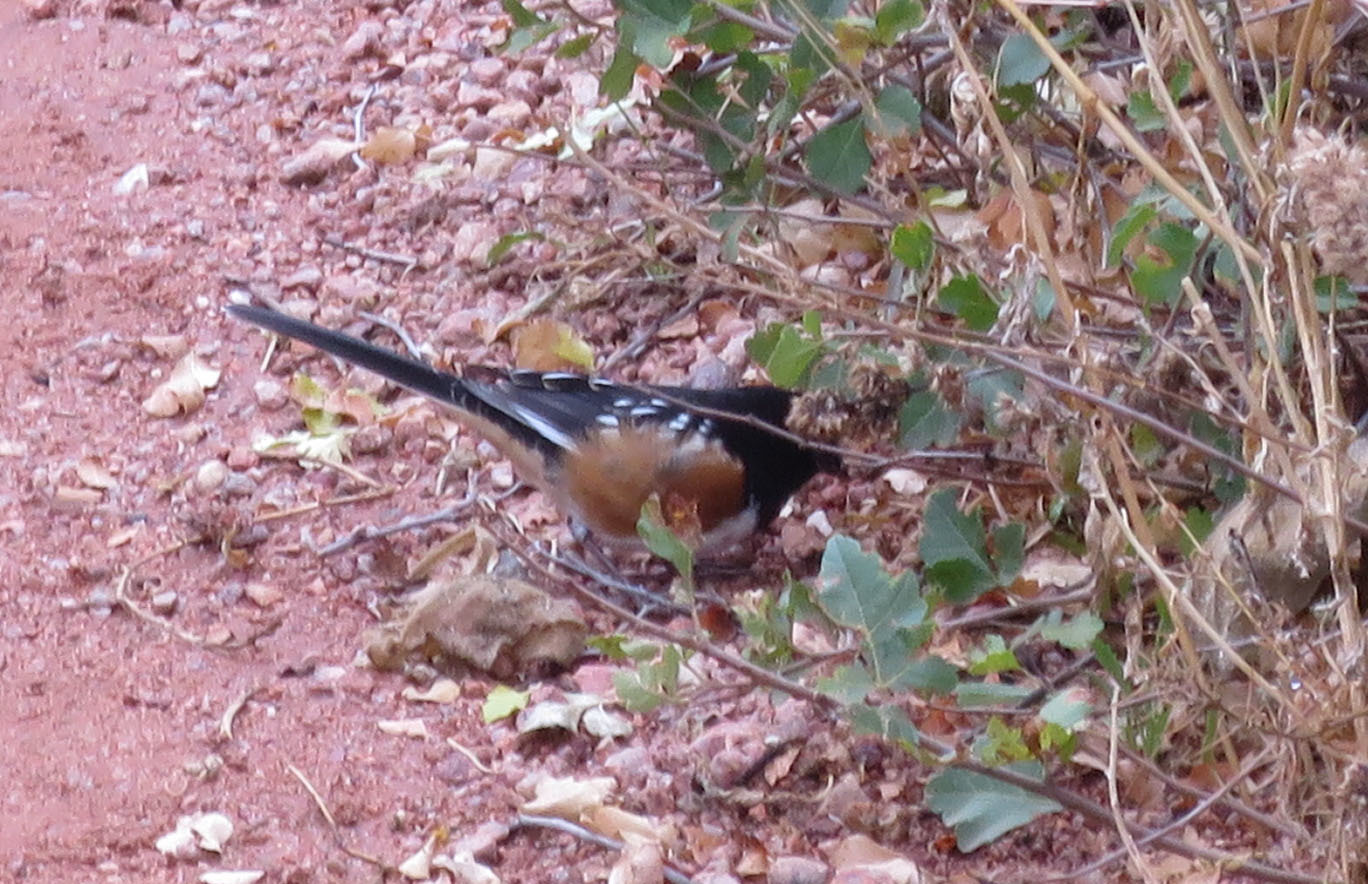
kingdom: Animalia
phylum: Chordata
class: Aves
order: Passeriformes
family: Passerellidae
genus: Pipilo
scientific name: Pipilo maculatus
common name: Spotted towhee
